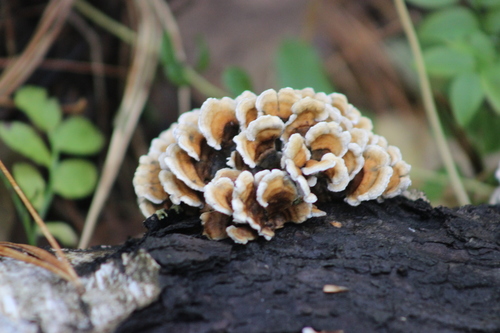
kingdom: Fungi
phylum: Basidiomycota
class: Agaricomycetes
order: Amylocorticiales
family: Amylocorticiaceae
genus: Plicaturopsis
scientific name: Plicaturopsis crispa
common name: Crimped gill
